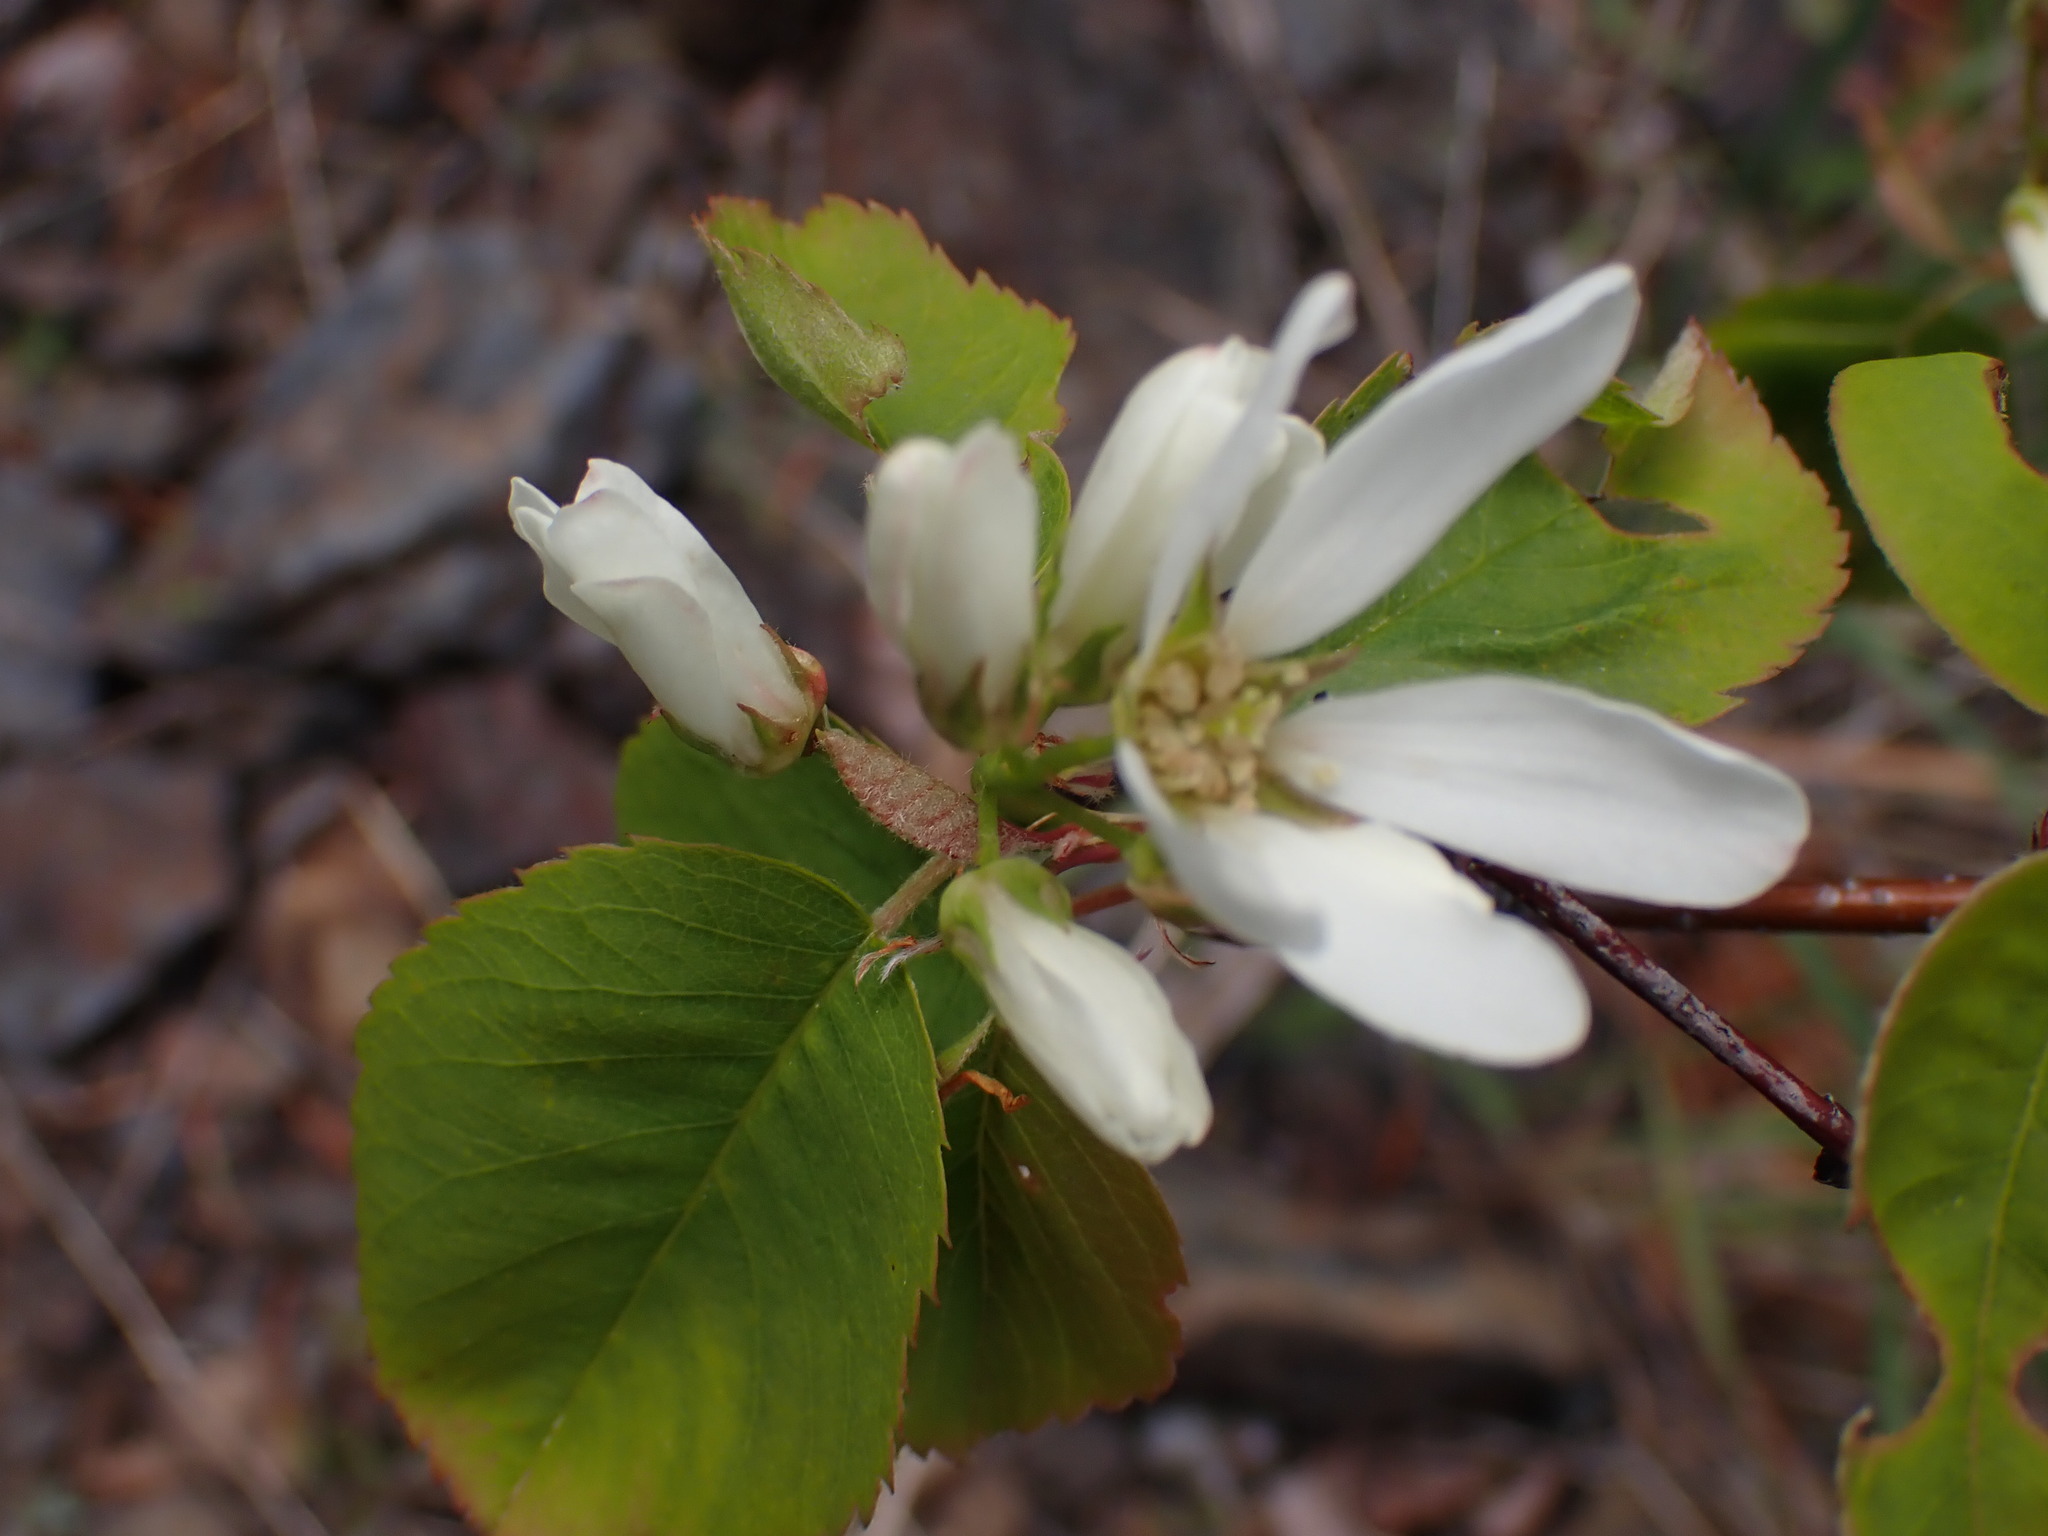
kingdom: Plantae
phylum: Tracheophyta
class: Magnoliopsida
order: Rosales
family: Rosaceae
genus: Amelanchier
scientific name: Amelanchier alnifolia
